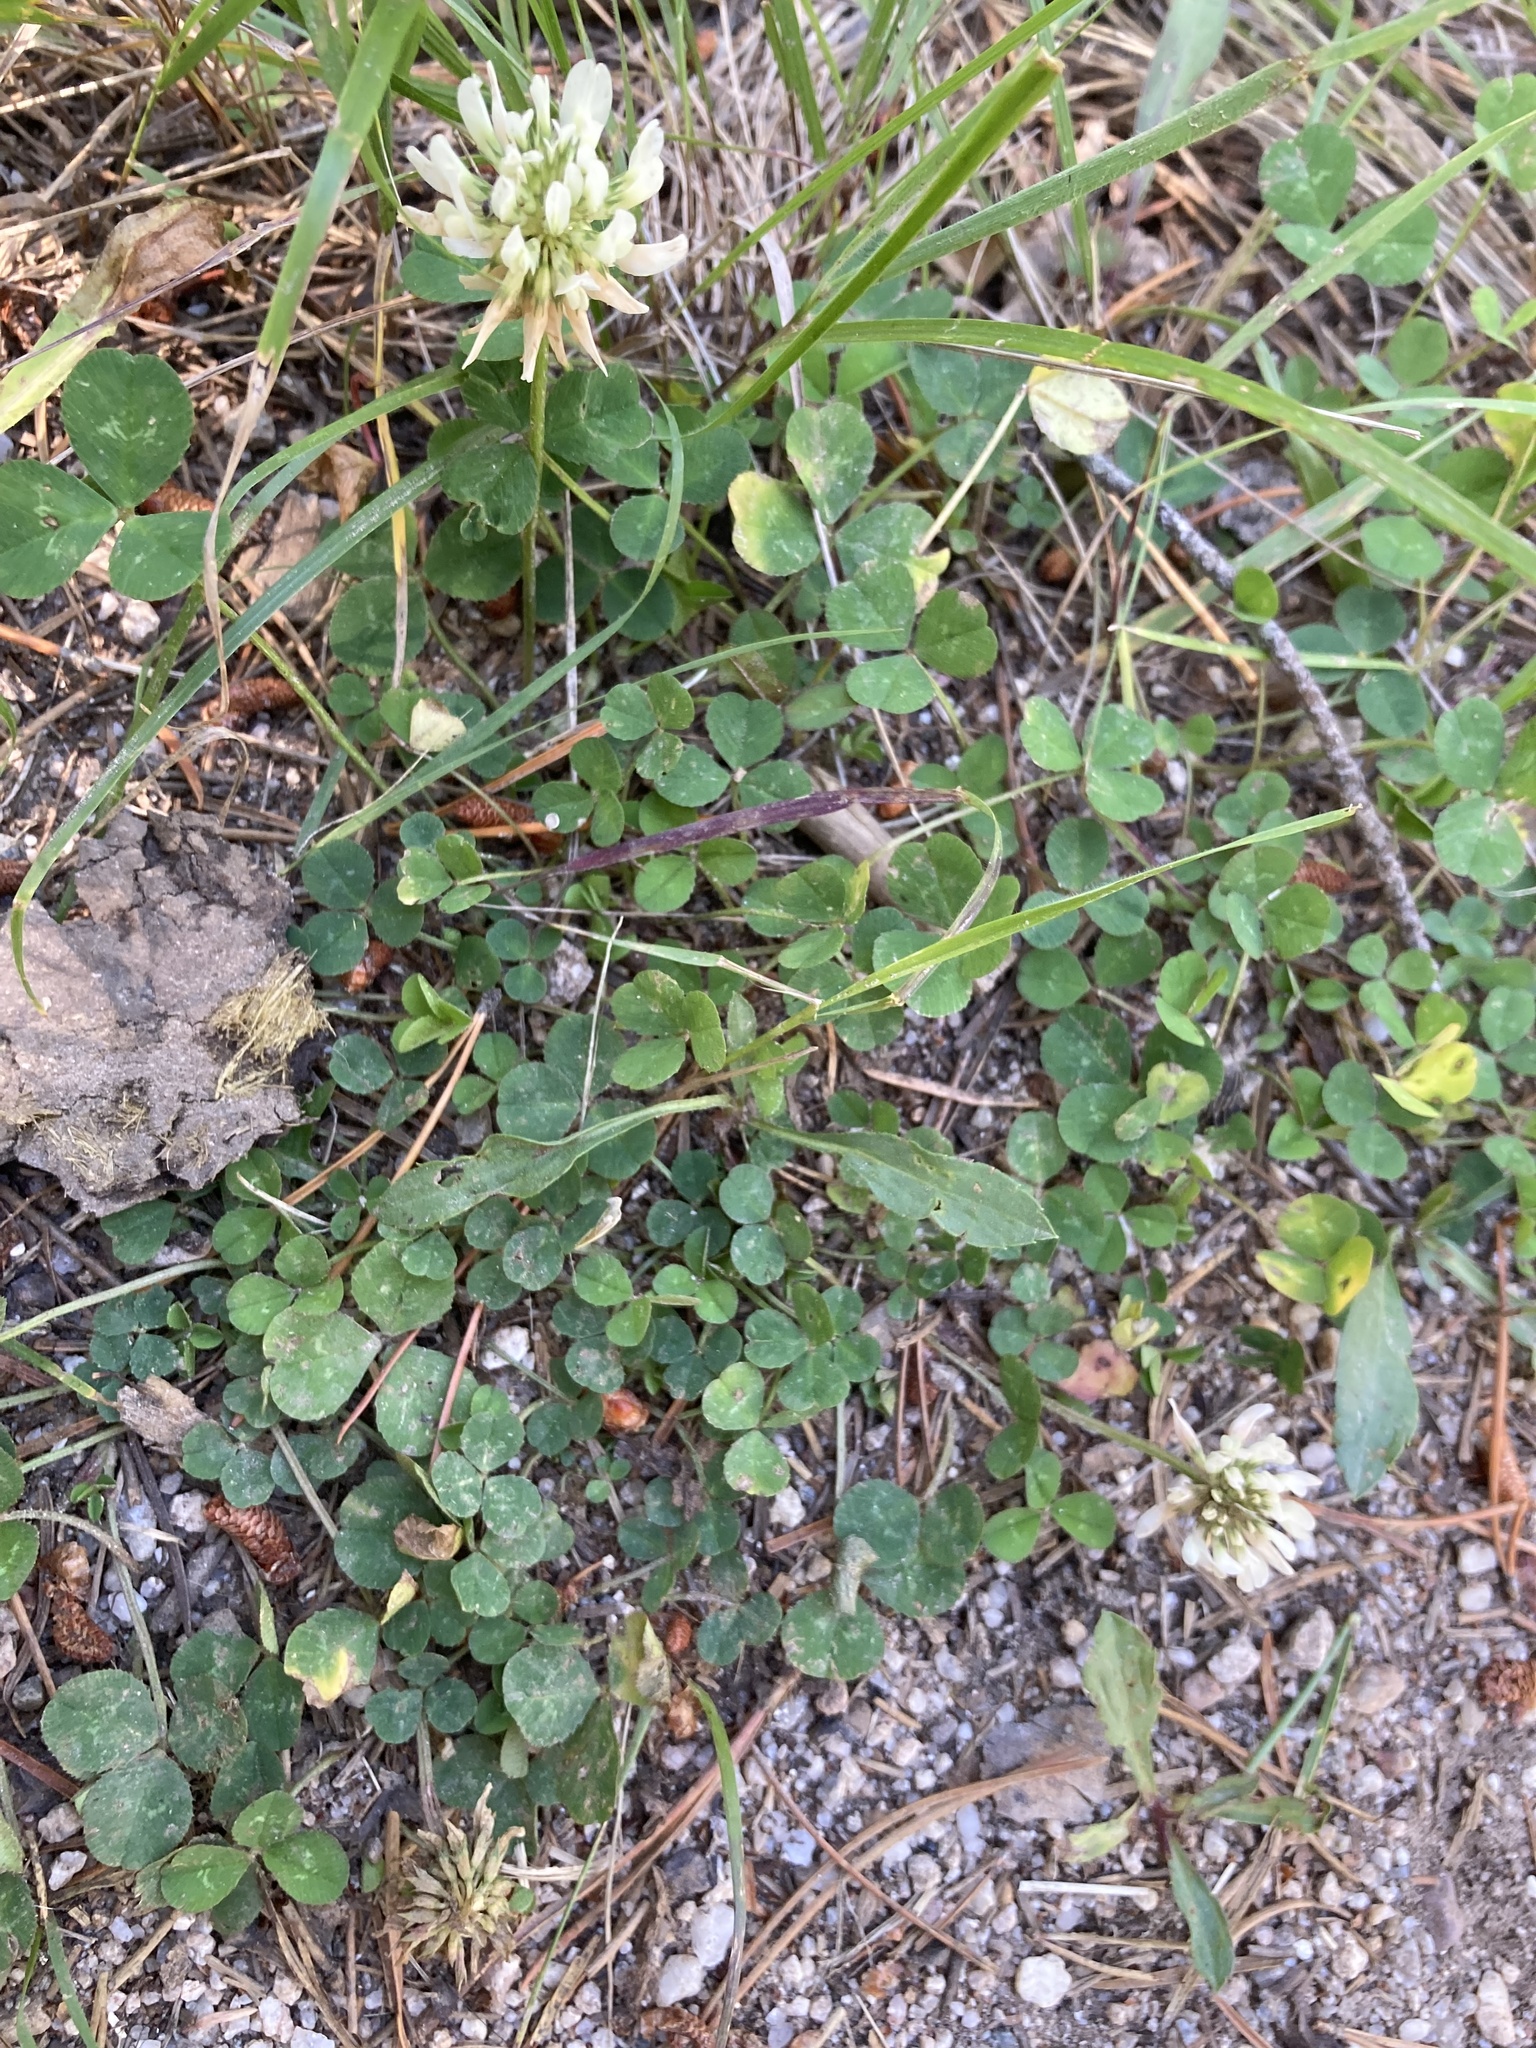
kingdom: Plantae
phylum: Tracheophyta
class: Magnoliopsida
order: Fabales
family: Fabaceae
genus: Trifolium
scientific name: Trifolium repens
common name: White clover
